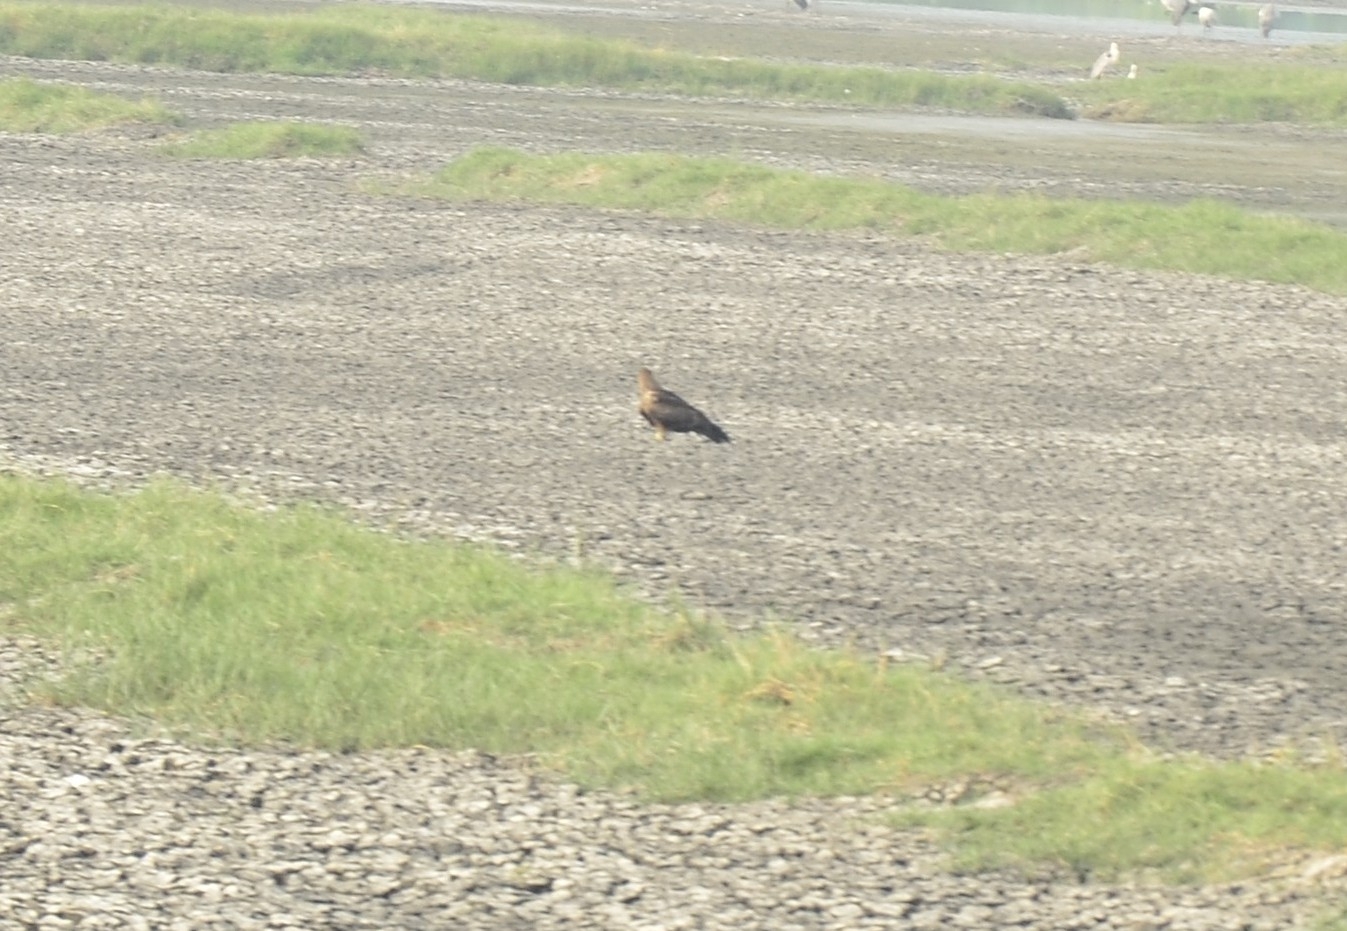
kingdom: Animalia
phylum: Chordata
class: Aves
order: Accipitriformes
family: Accipitridae
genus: Milvus
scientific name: Milvus migrans
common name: Black kite
